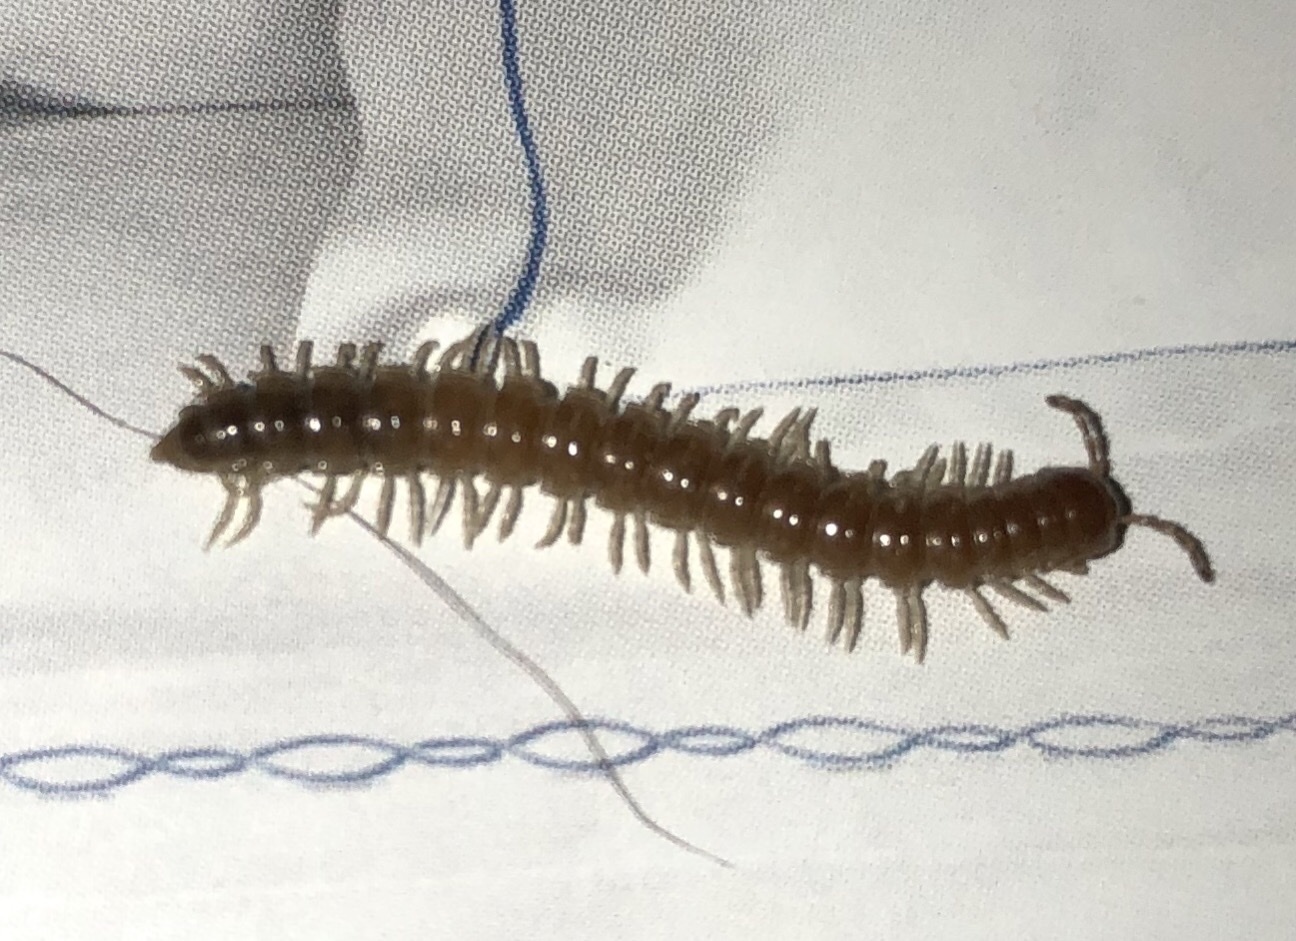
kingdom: Animalia
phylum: Arthropoda
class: Diplopoda
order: Polydesmida
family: Paradoxosomatidae
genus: Oxidus
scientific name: Oxidus gracilis
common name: Greenhouse millipede
